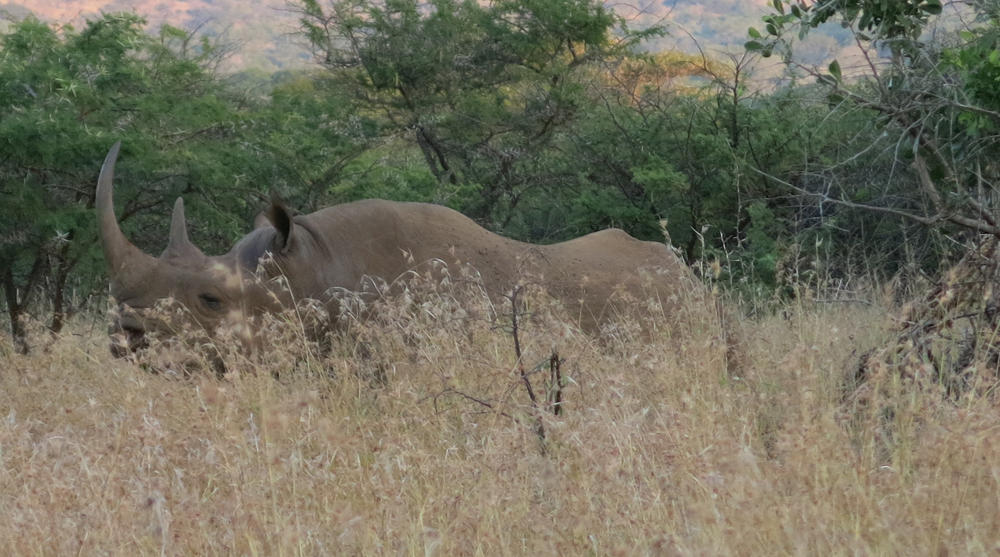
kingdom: Animalia
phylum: Chordata
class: Mammalia
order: Perissodactyla
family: Rhinocerotidae
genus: Diceros
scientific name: Diceros bicornis
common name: Black rhinoceros
